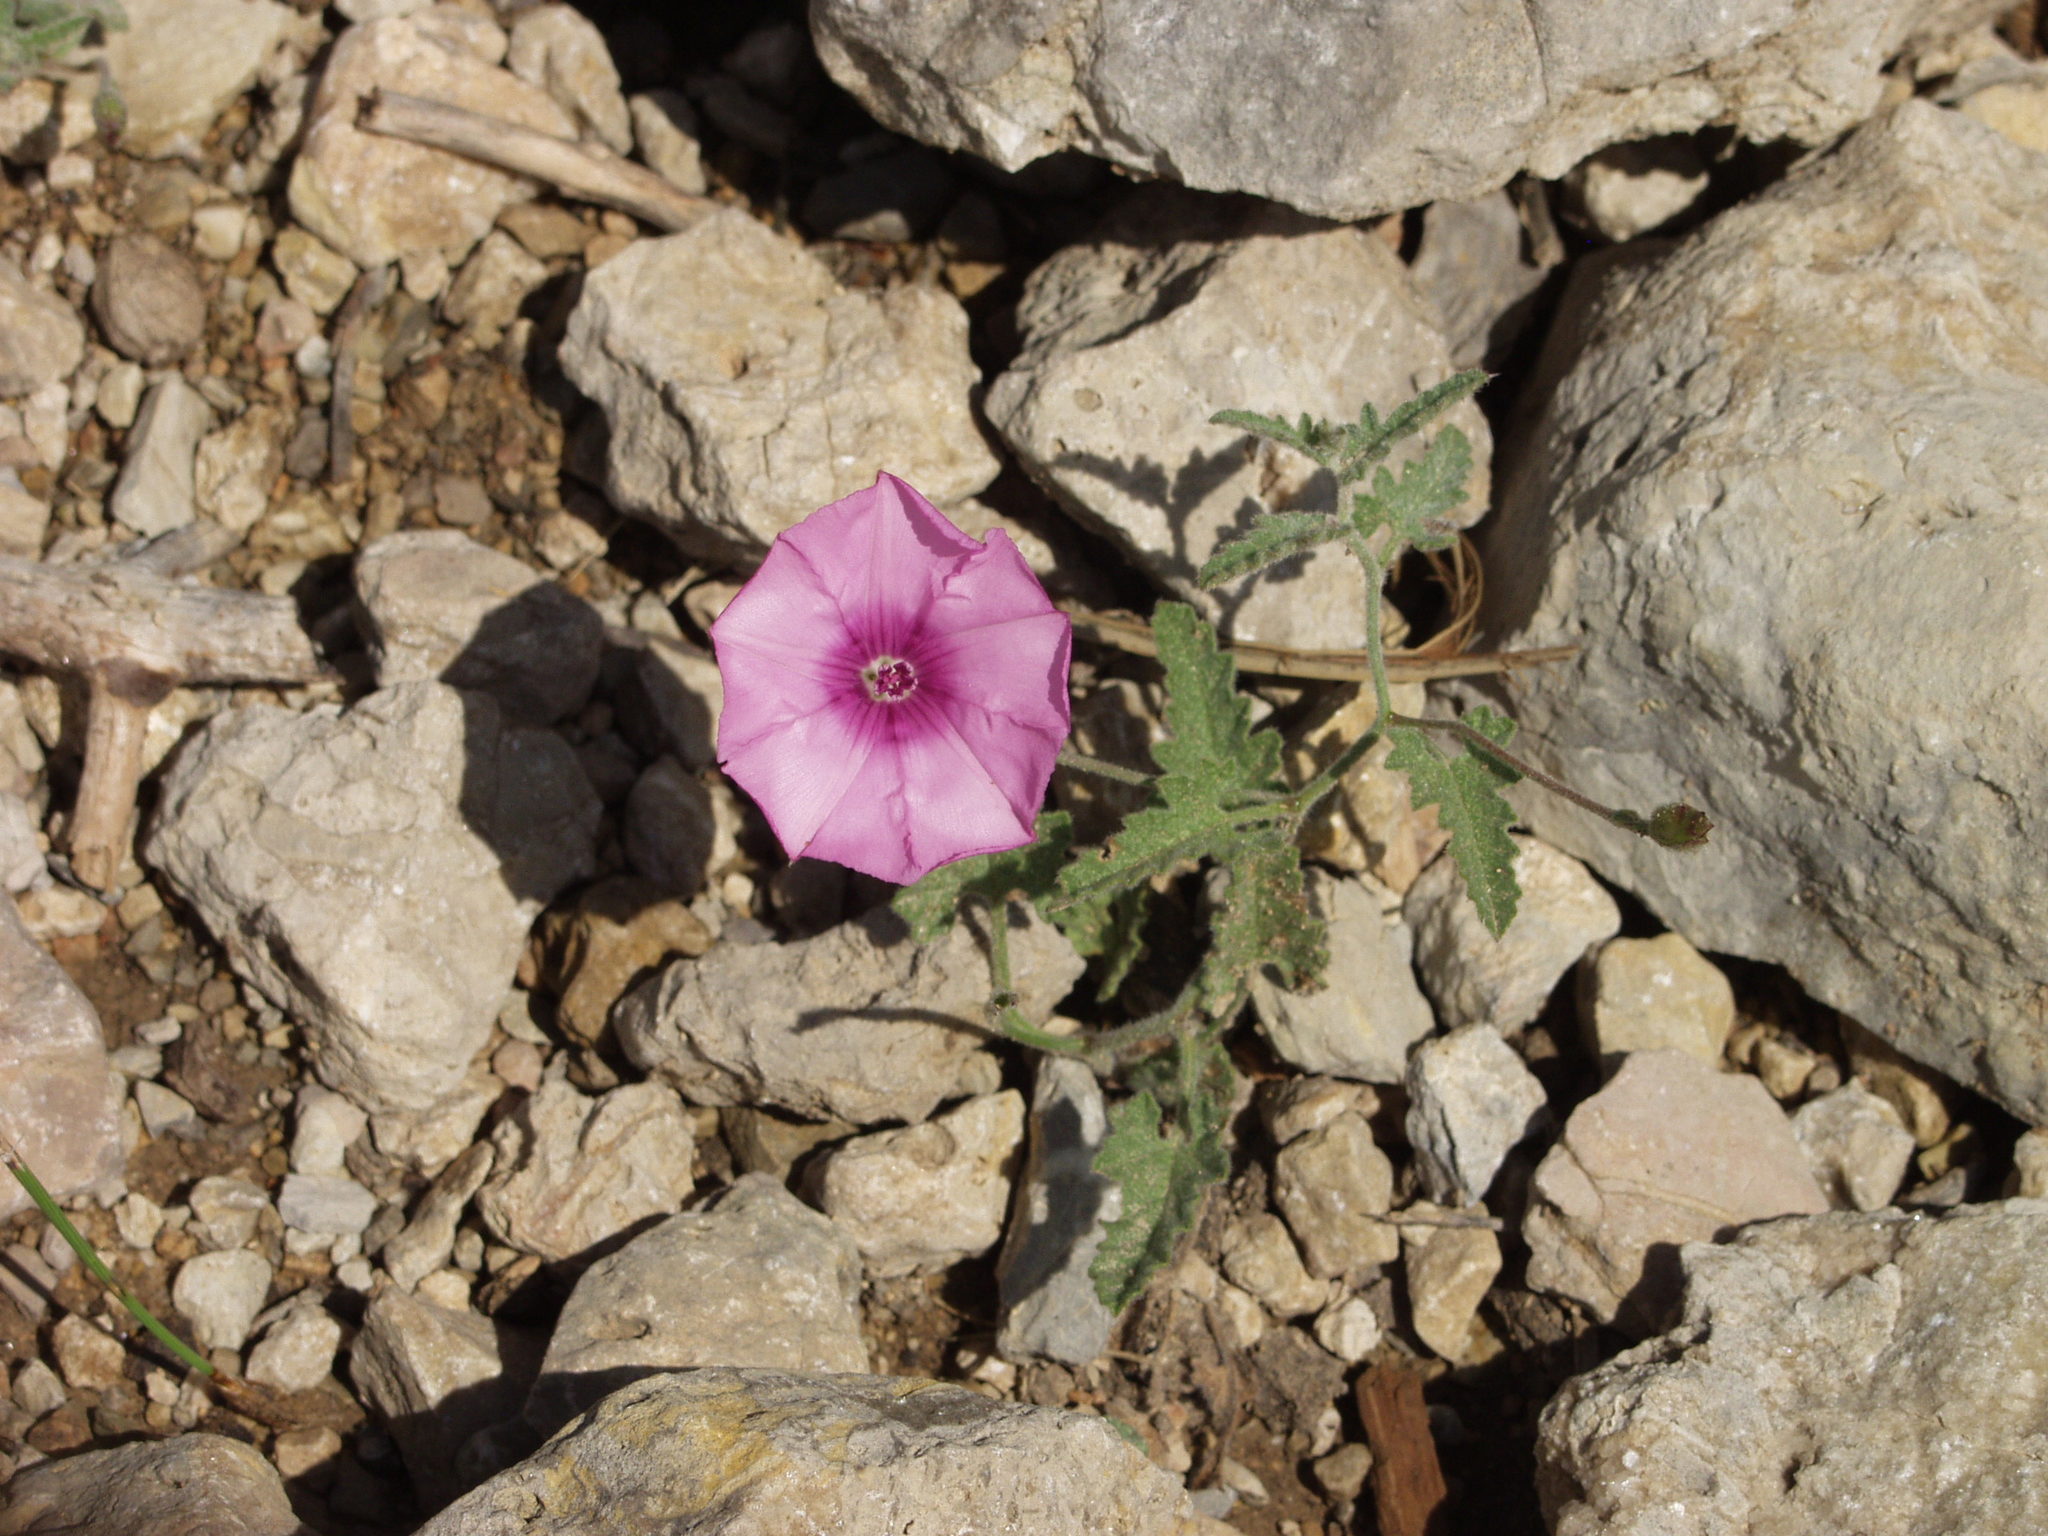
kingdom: Plantae
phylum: Tracheophyta
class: Magnoliopsida
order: Solanales
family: Convolvulaceae
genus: Convolvulus
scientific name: Convolvulus althaeoides
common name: Mallow bindweed
